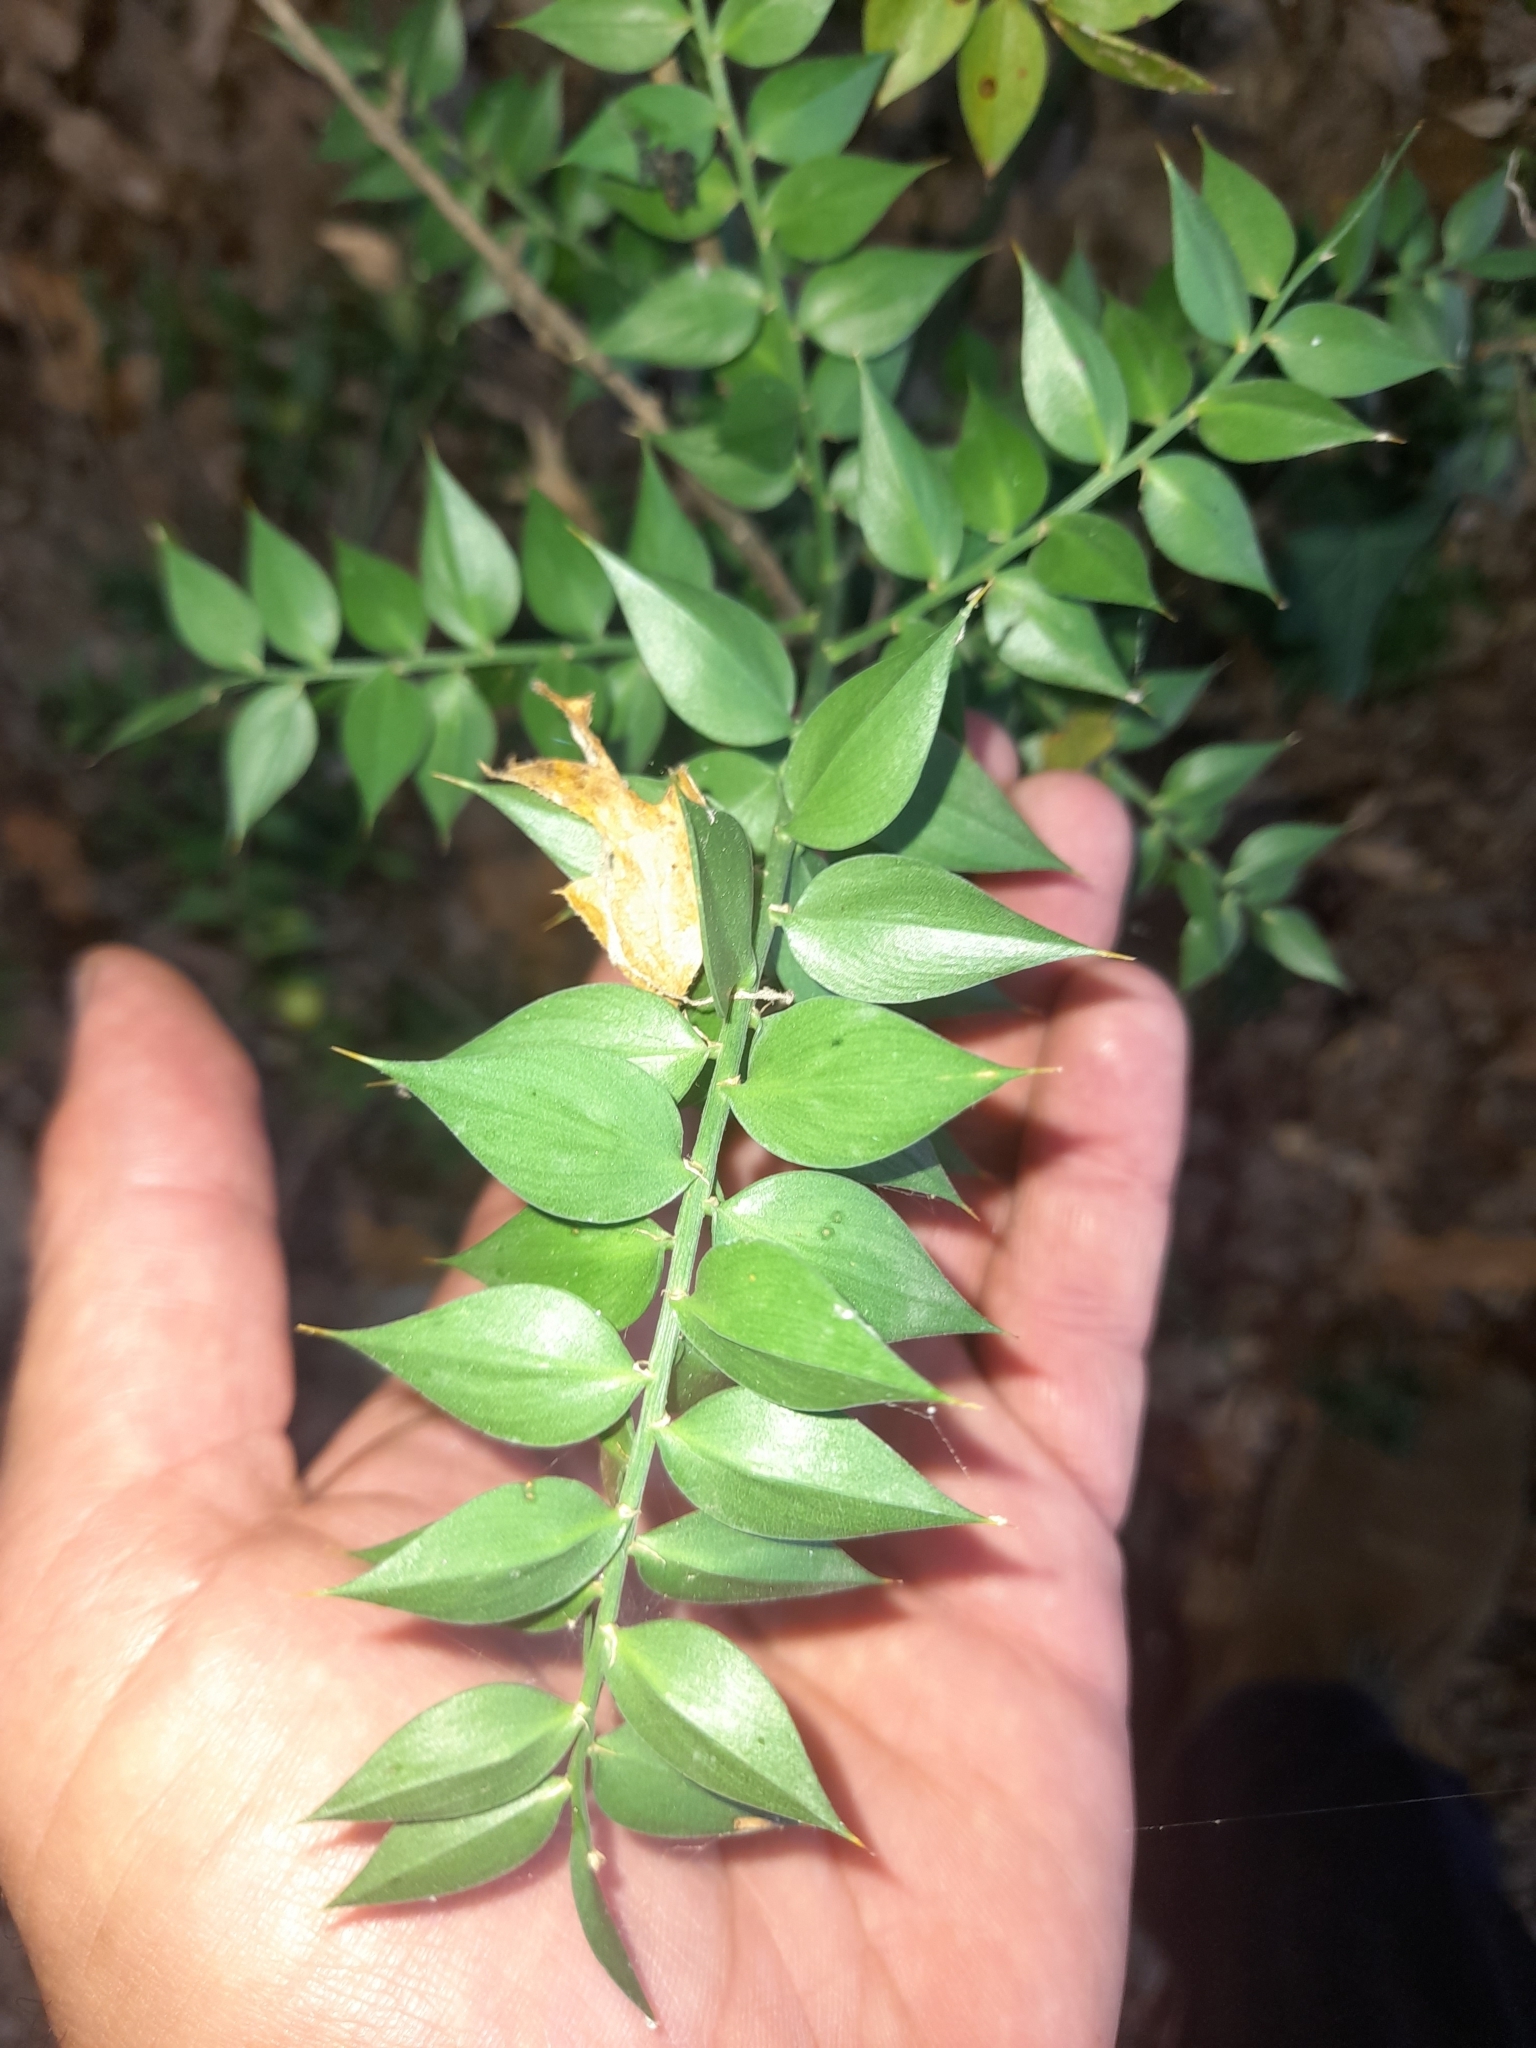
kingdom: Plantae
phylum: Tracheophyta
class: Liliopsida
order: Asparagales
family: Asparagaceae
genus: Ruscus
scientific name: Ruscus aculeatus
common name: Butcher's-broom
